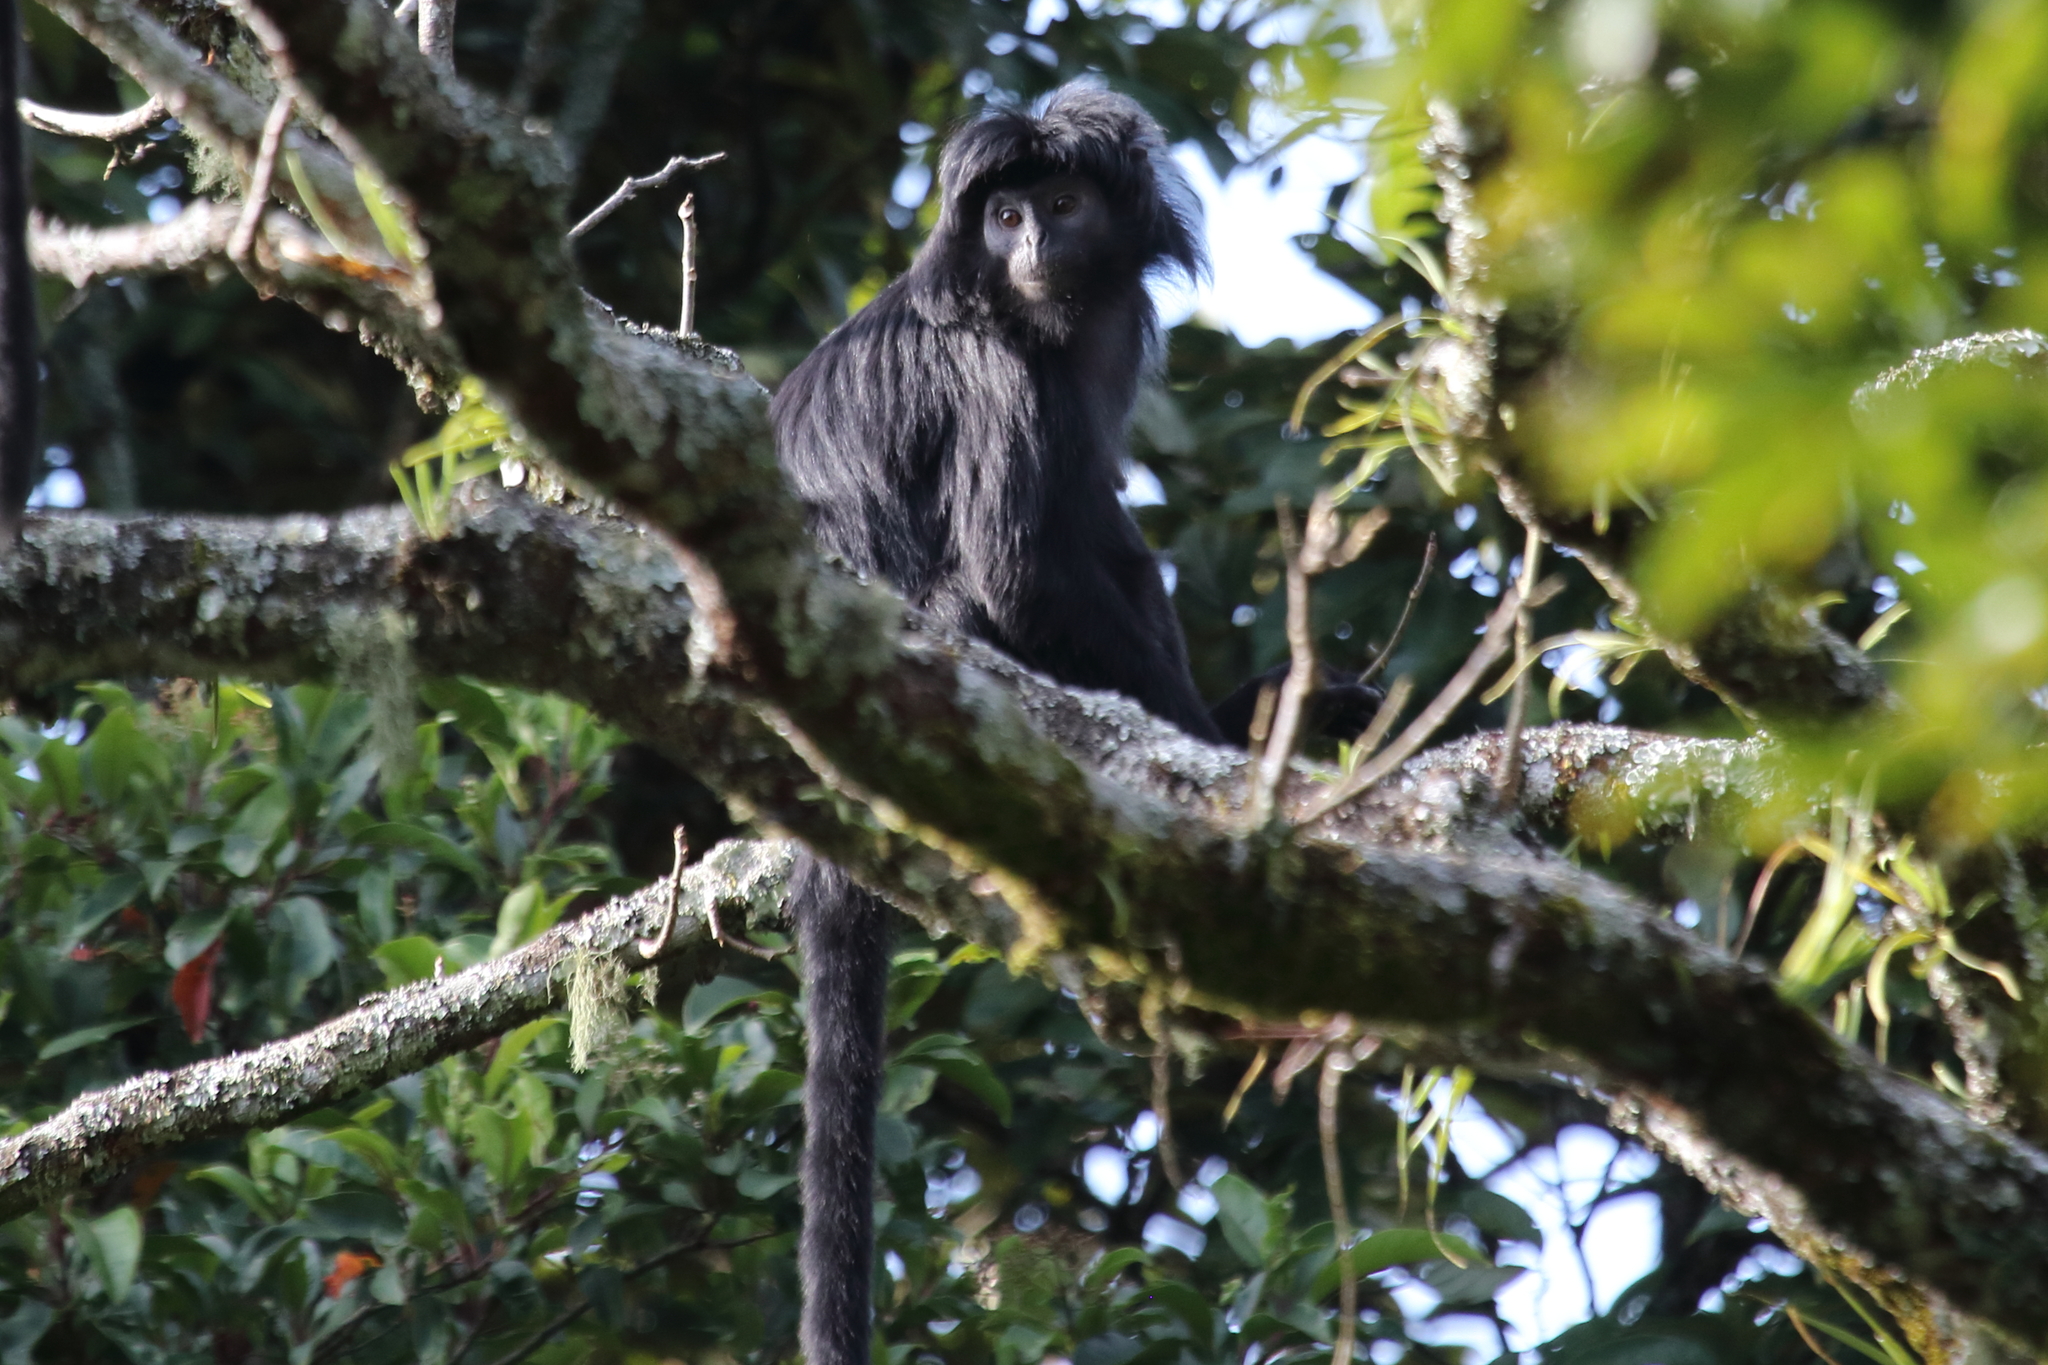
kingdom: Animalia
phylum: Chordata
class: Mammalia
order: Primates
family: Cercopithecidae
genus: Trachypithecus
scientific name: Trachypithecus auratus
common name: Javan lutung
